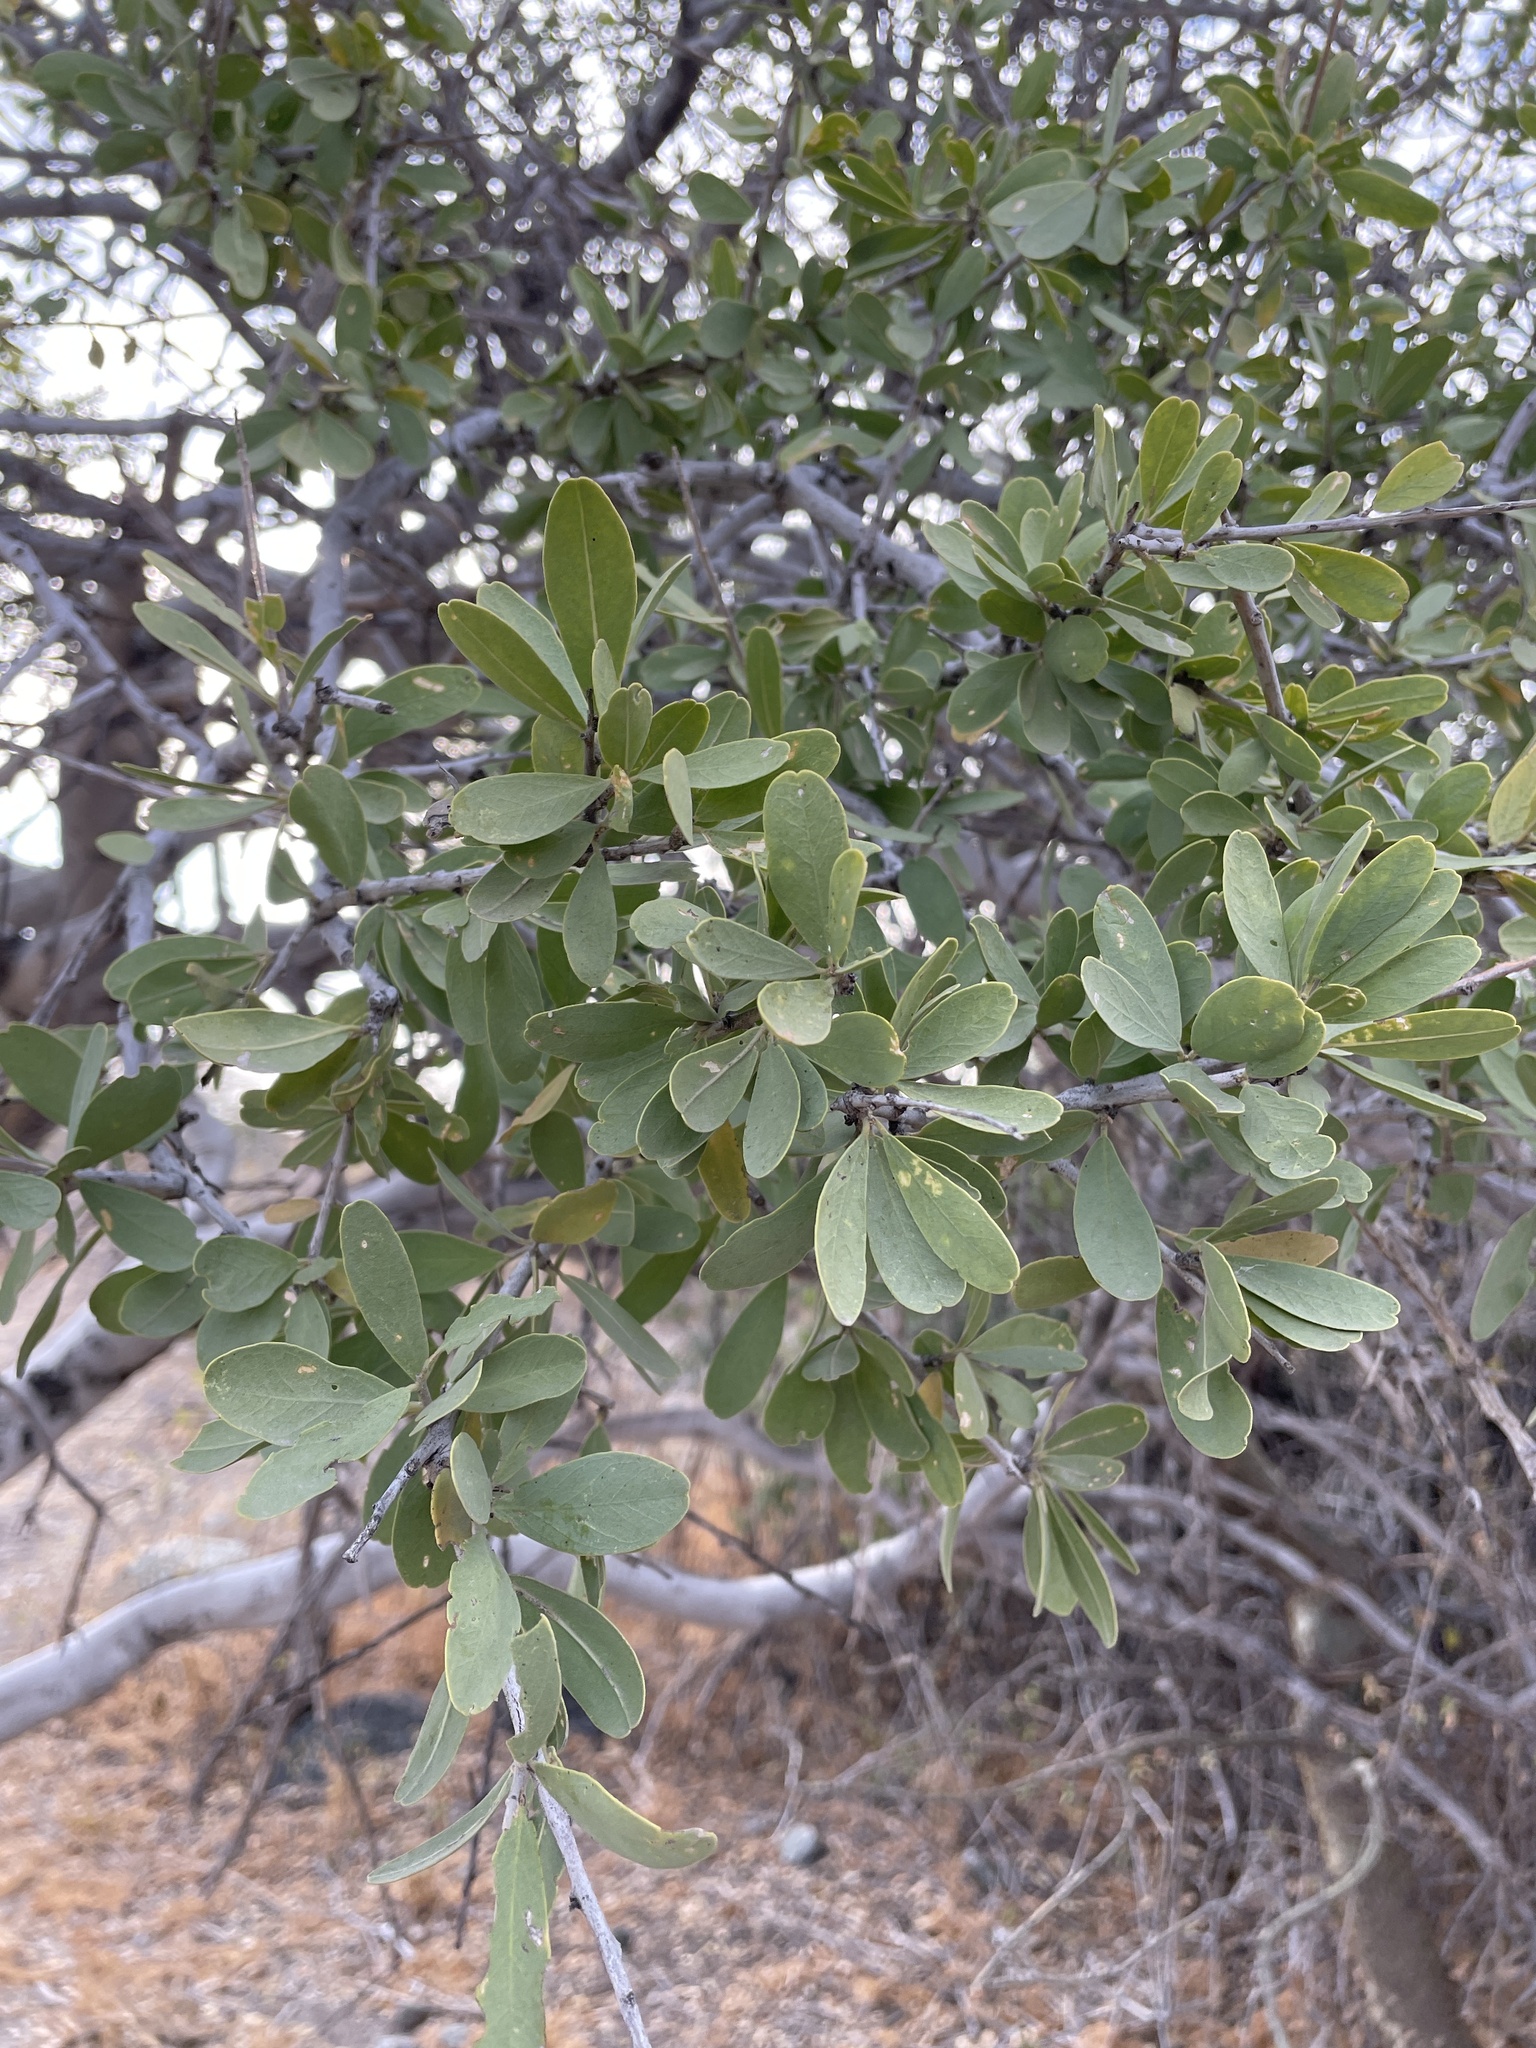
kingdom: Plantae
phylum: Tracheophyta
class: Magnoliopsida
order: Brassicales
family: Capparaceae
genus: Boscia
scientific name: Boscia albitrunca
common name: Caper bush
